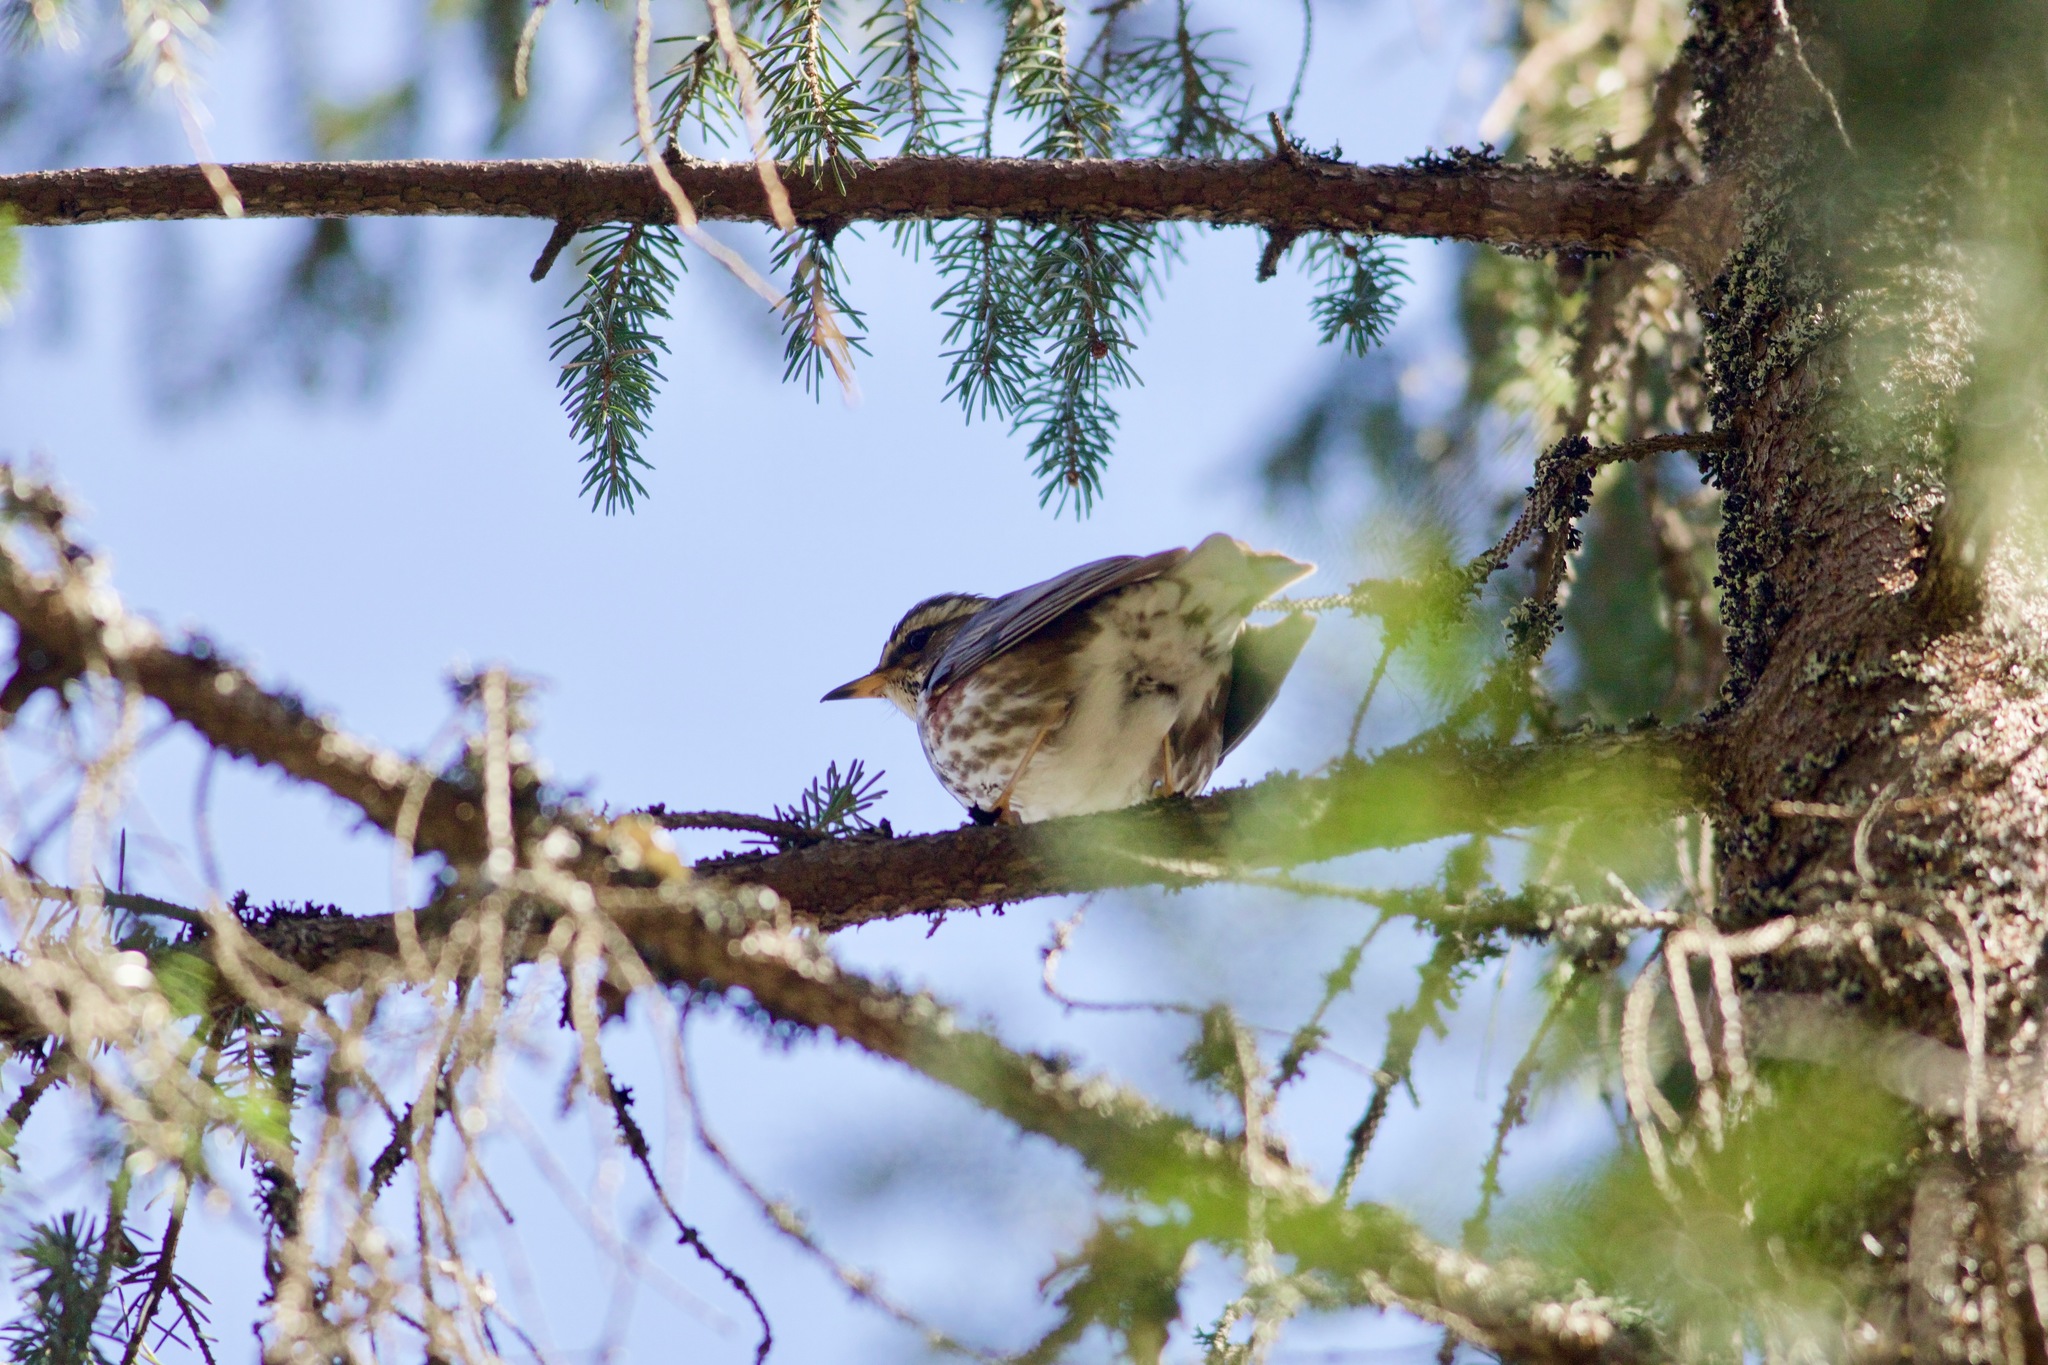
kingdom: Animalia
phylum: Chordata
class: Aves
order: Passeriformes
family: Turdidae
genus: Turdus
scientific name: Turdus iliacus
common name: Redwing
